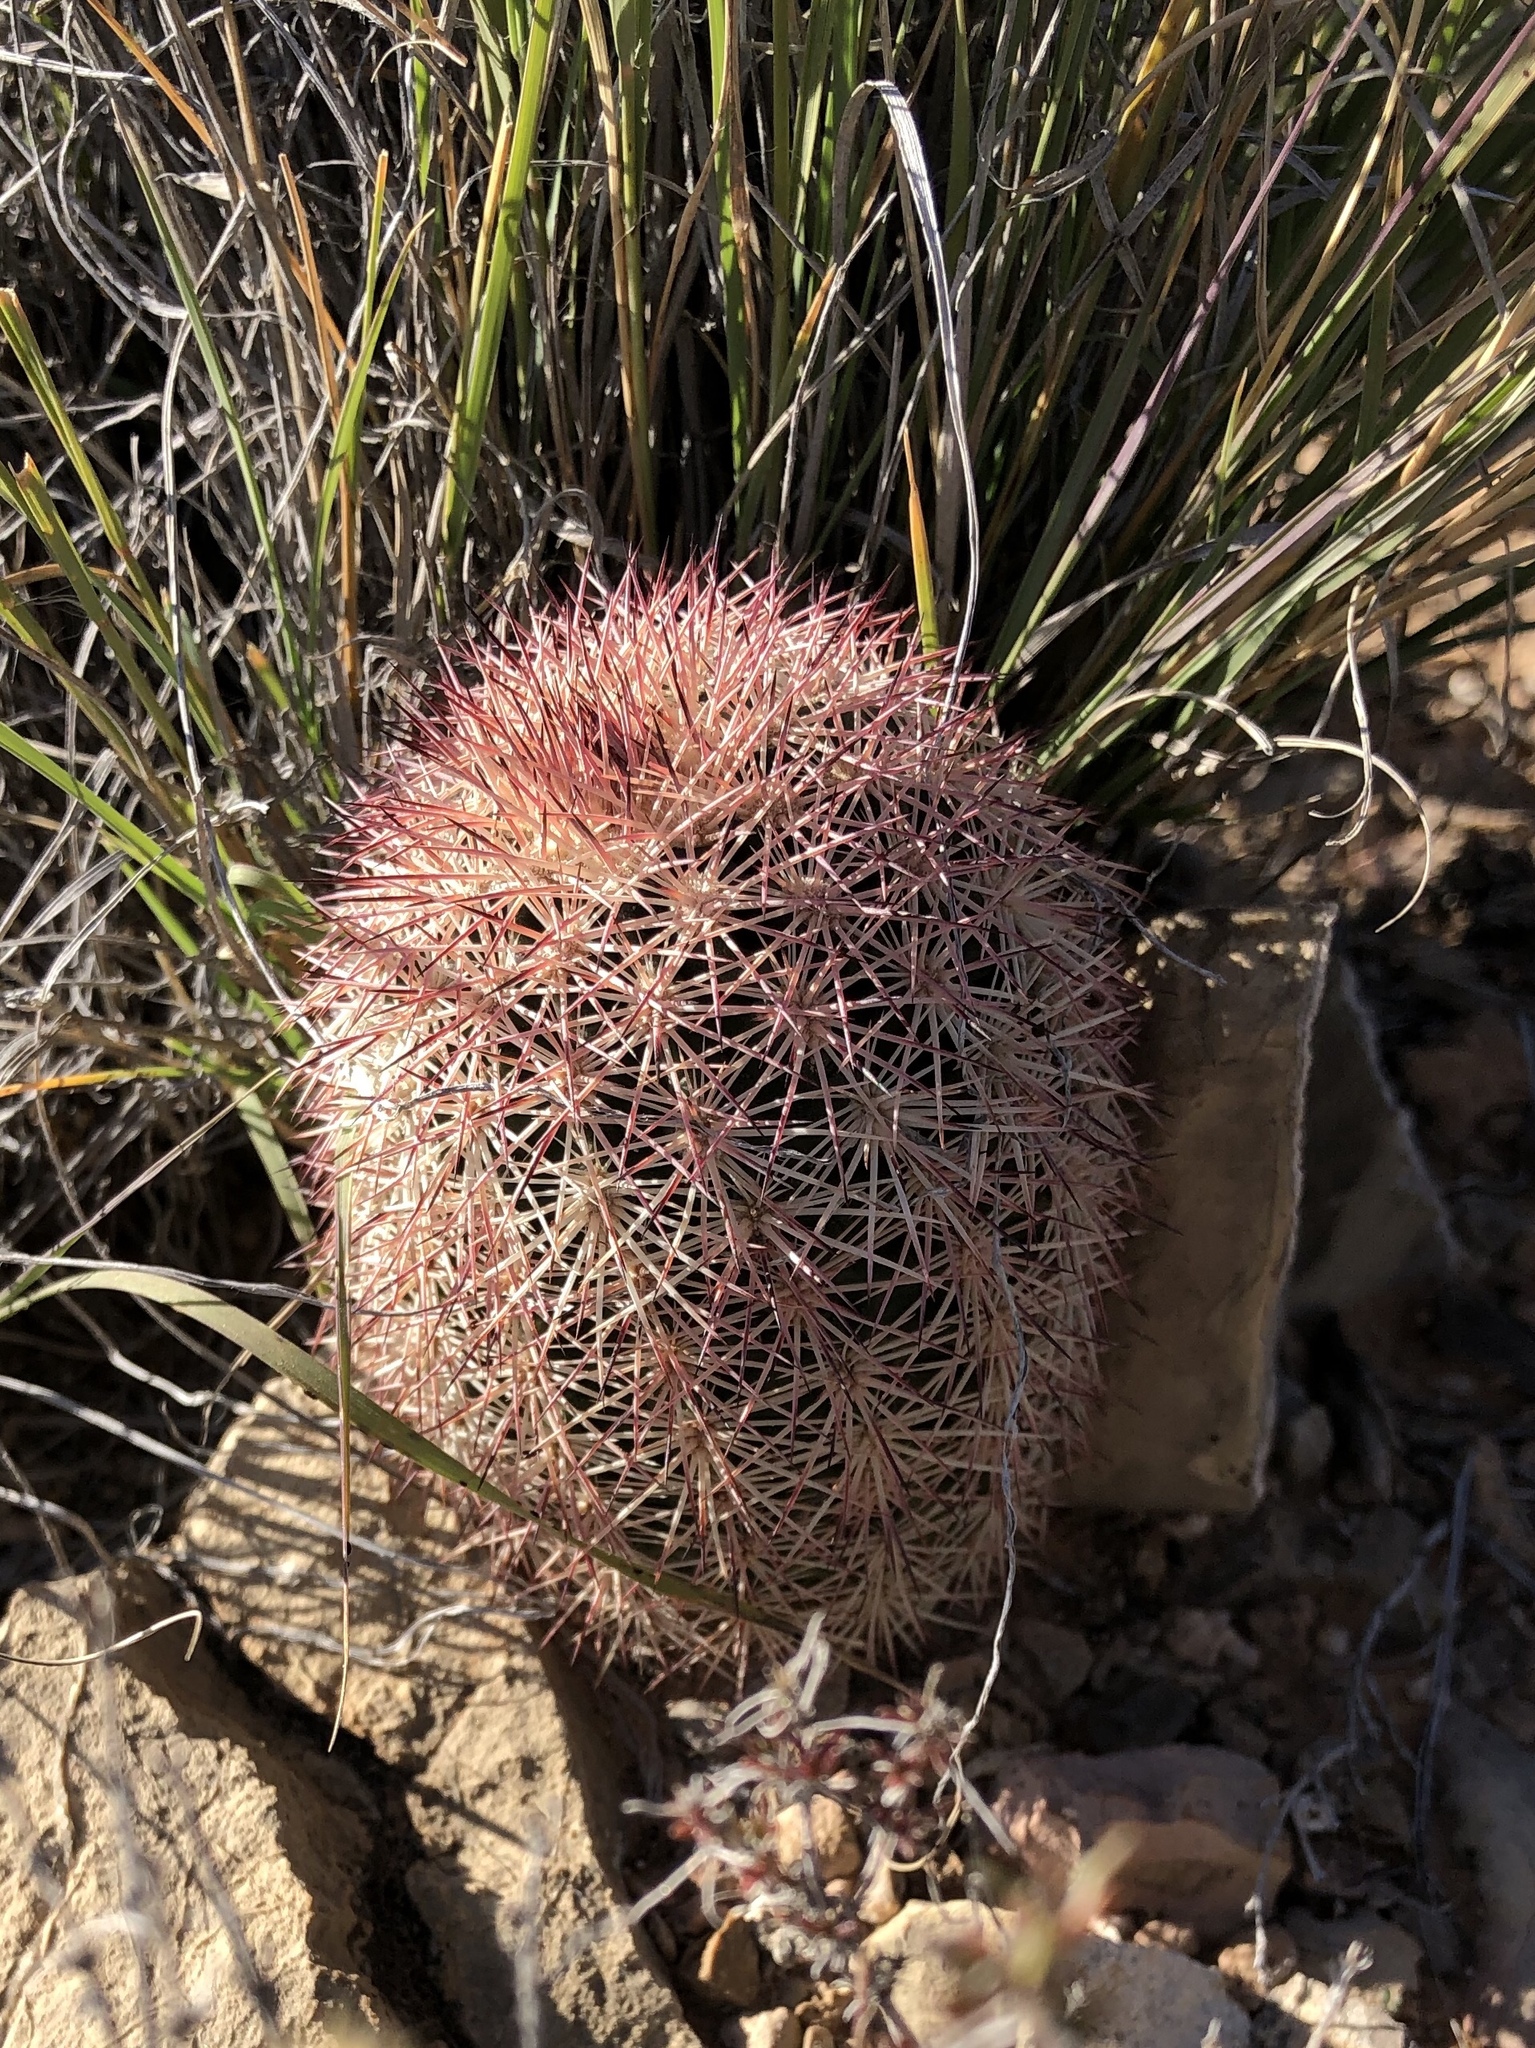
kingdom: Plantae
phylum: Tracheophyta
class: Magnoliopsida
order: Caryophyllales
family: Cactaceae
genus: Echinocereus
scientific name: Echinocereus dasyacanthus
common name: Spiny hedgehog cactus
